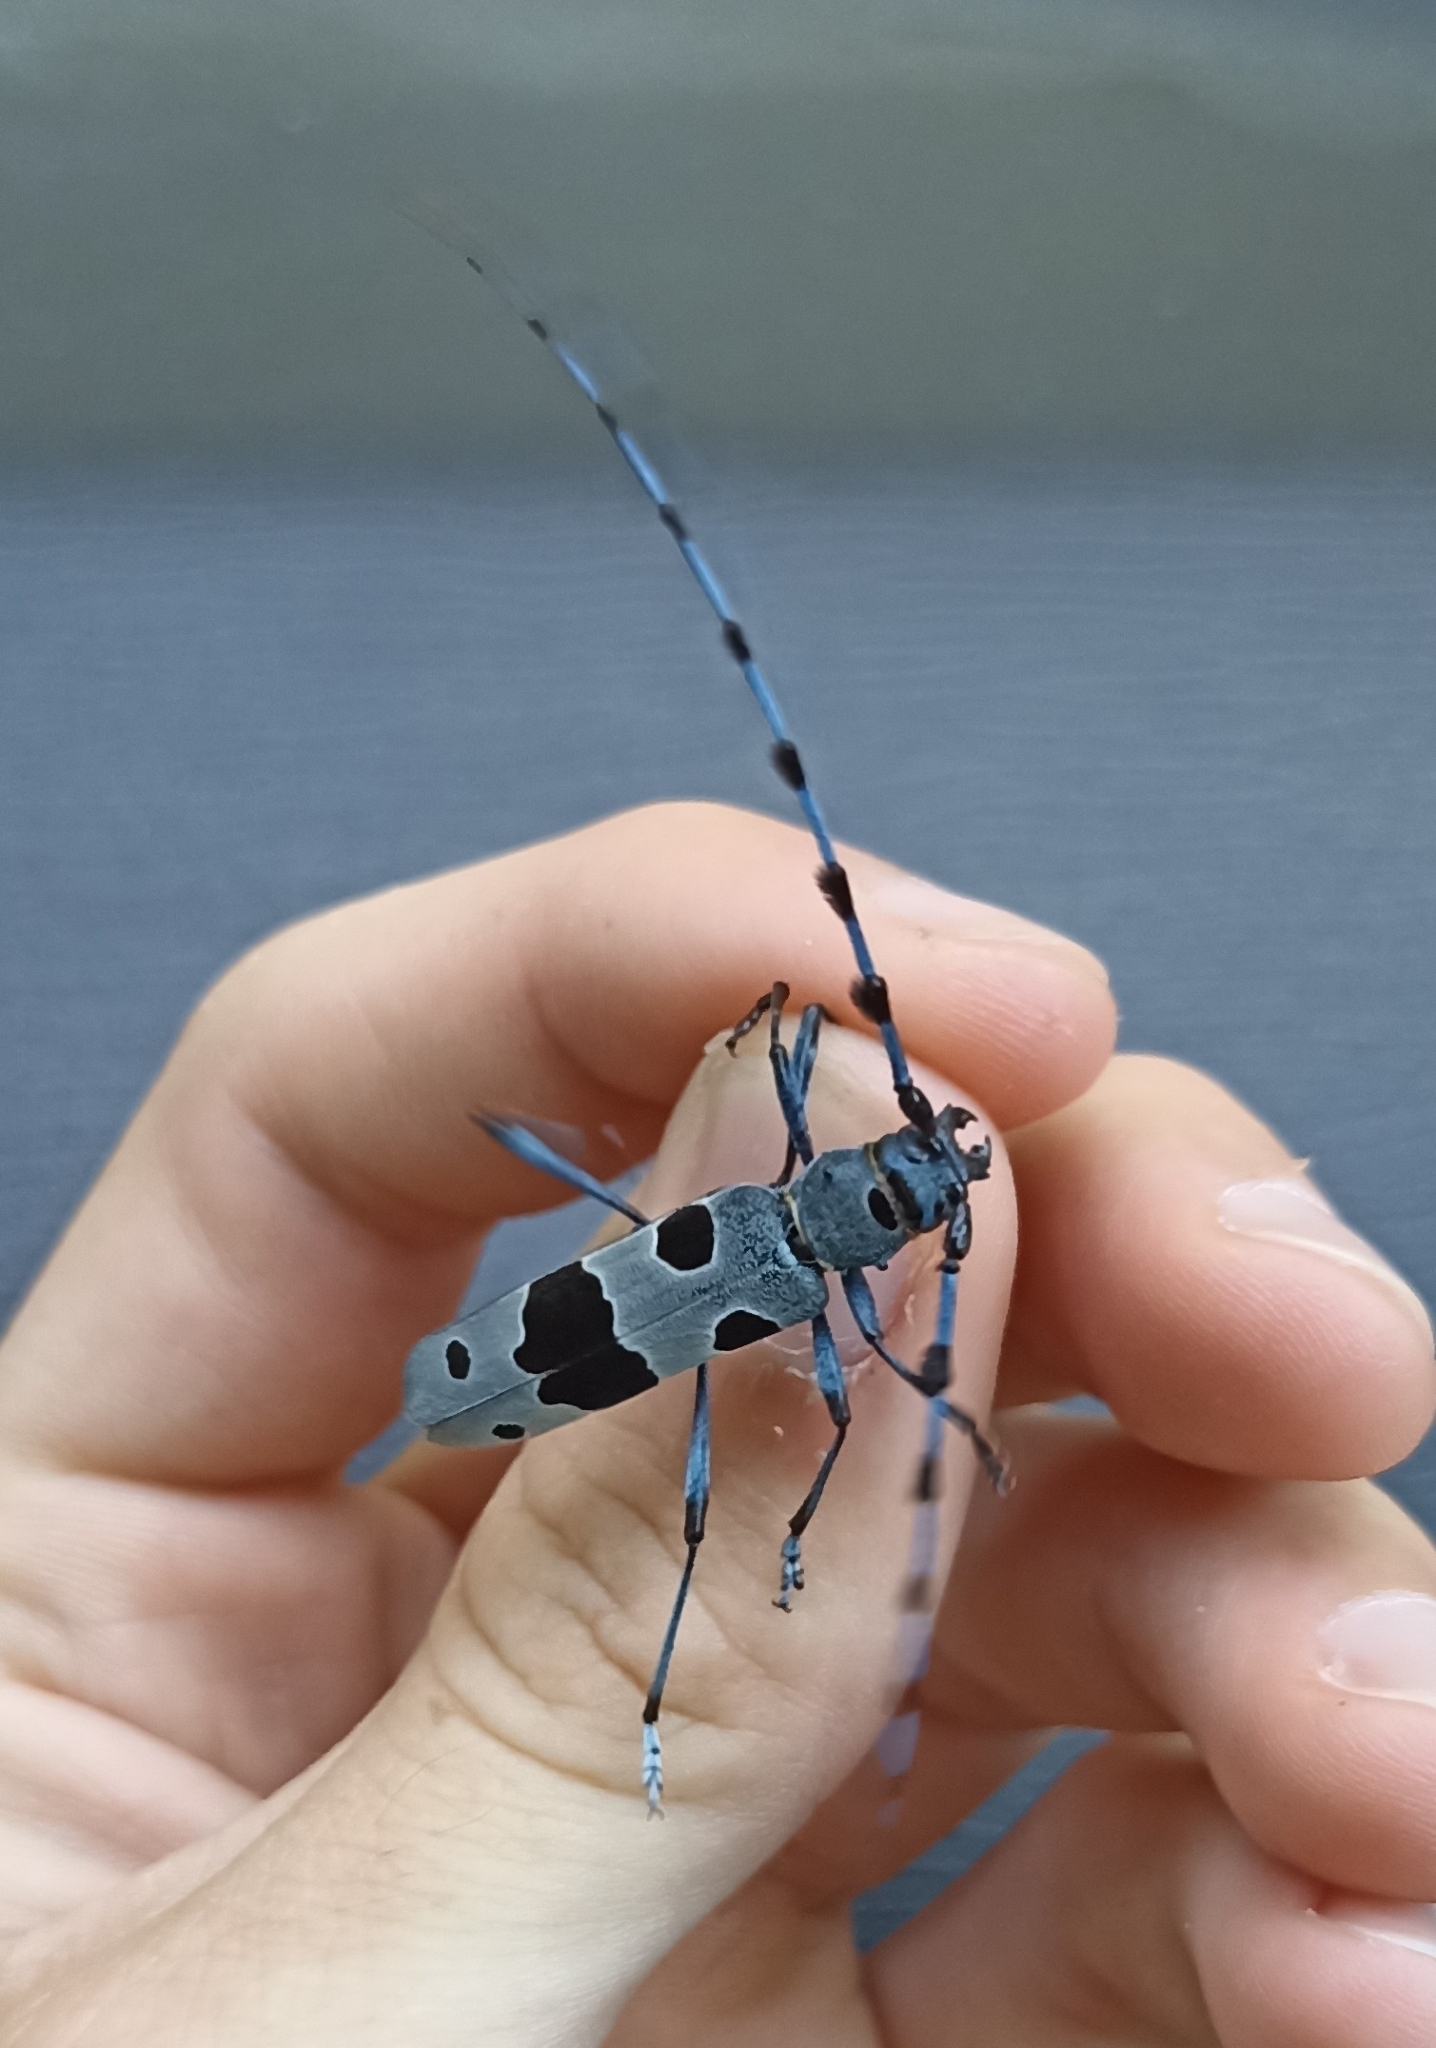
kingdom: Animalia
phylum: Arthropoda
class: Insecta
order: Coleoptera
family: Cerambycidae
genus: Rosalia
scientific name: Rosalia alpina
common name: Rosalia longicorn
